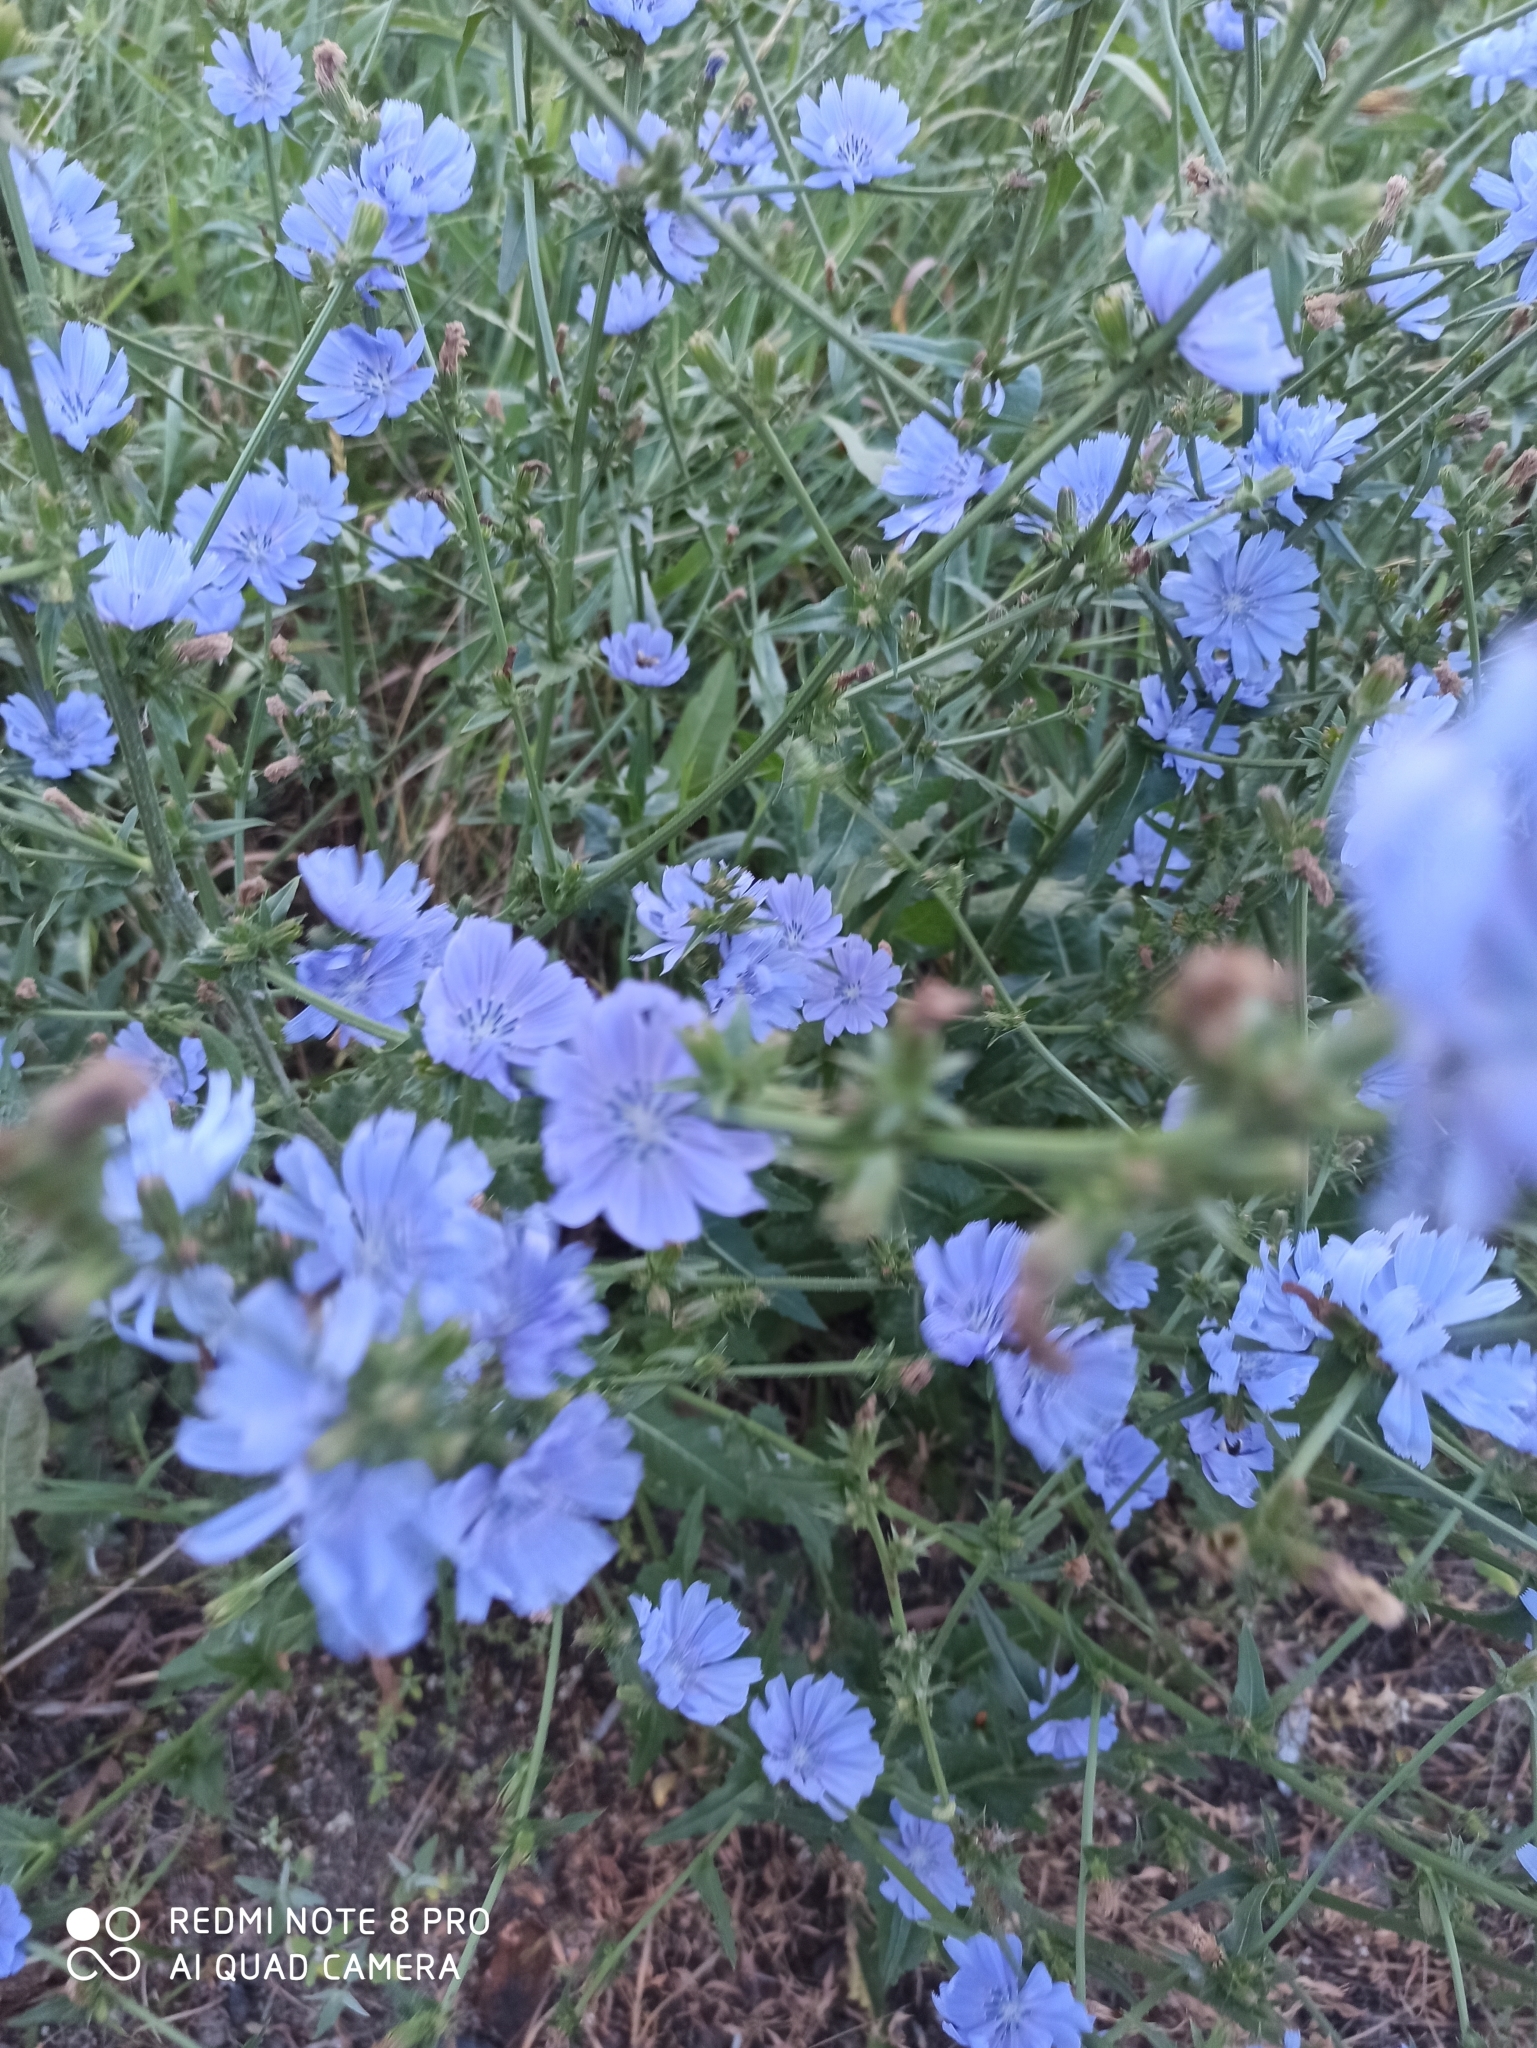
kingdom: Plantae
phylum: Tracheophyta
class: Magnoliopsida
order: Asterales
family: Asteraceae
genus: Cichorium
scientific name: Cichorium intybus
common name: Chicory
